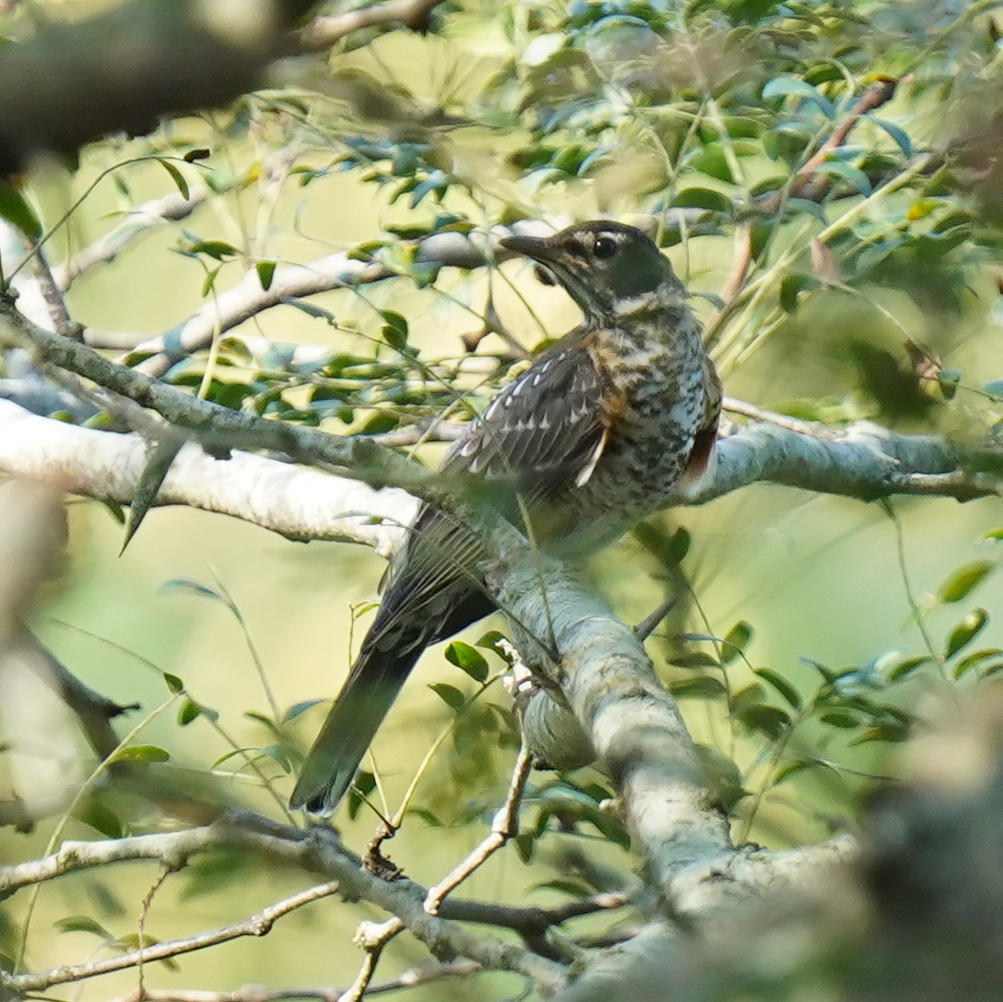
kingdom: Animalia
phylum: Chordata
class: Aves
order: Passeriformes
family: Turdidae
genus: Turdus
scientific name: Turdus migratorius
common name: American robin
